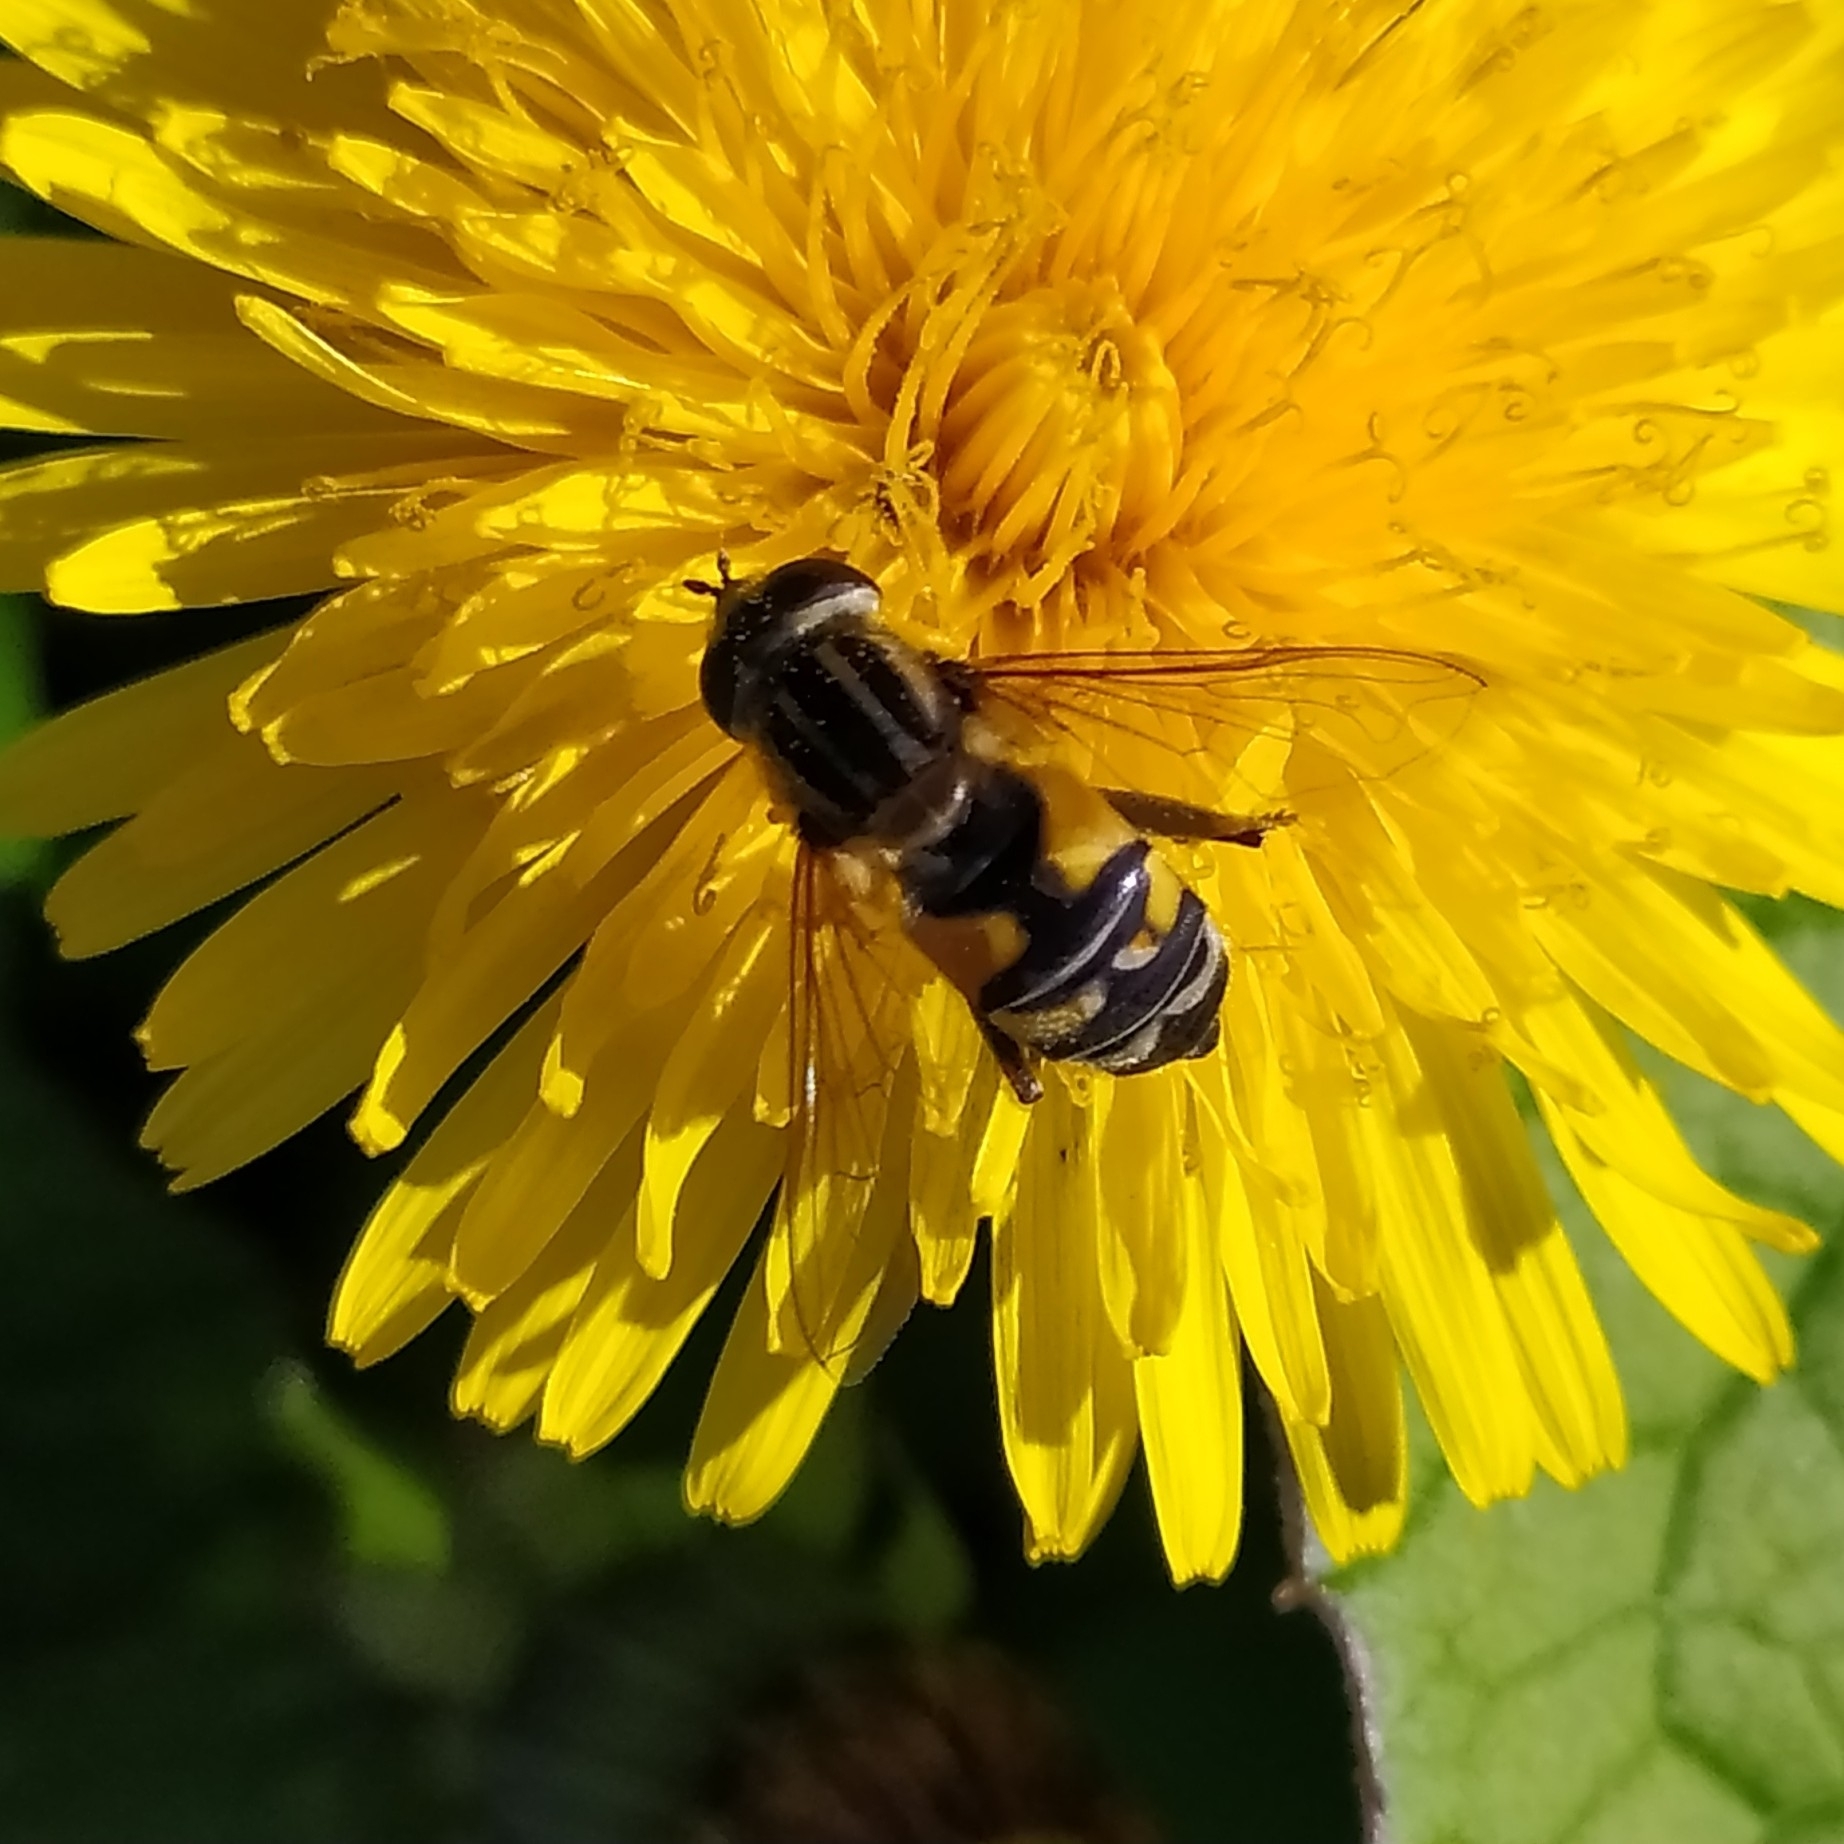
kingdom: Animalia
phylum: Arthropoda
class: Insecta
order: Diptera
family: Syrphidae
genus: Helophilus
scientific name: Helophilus trivittatus
